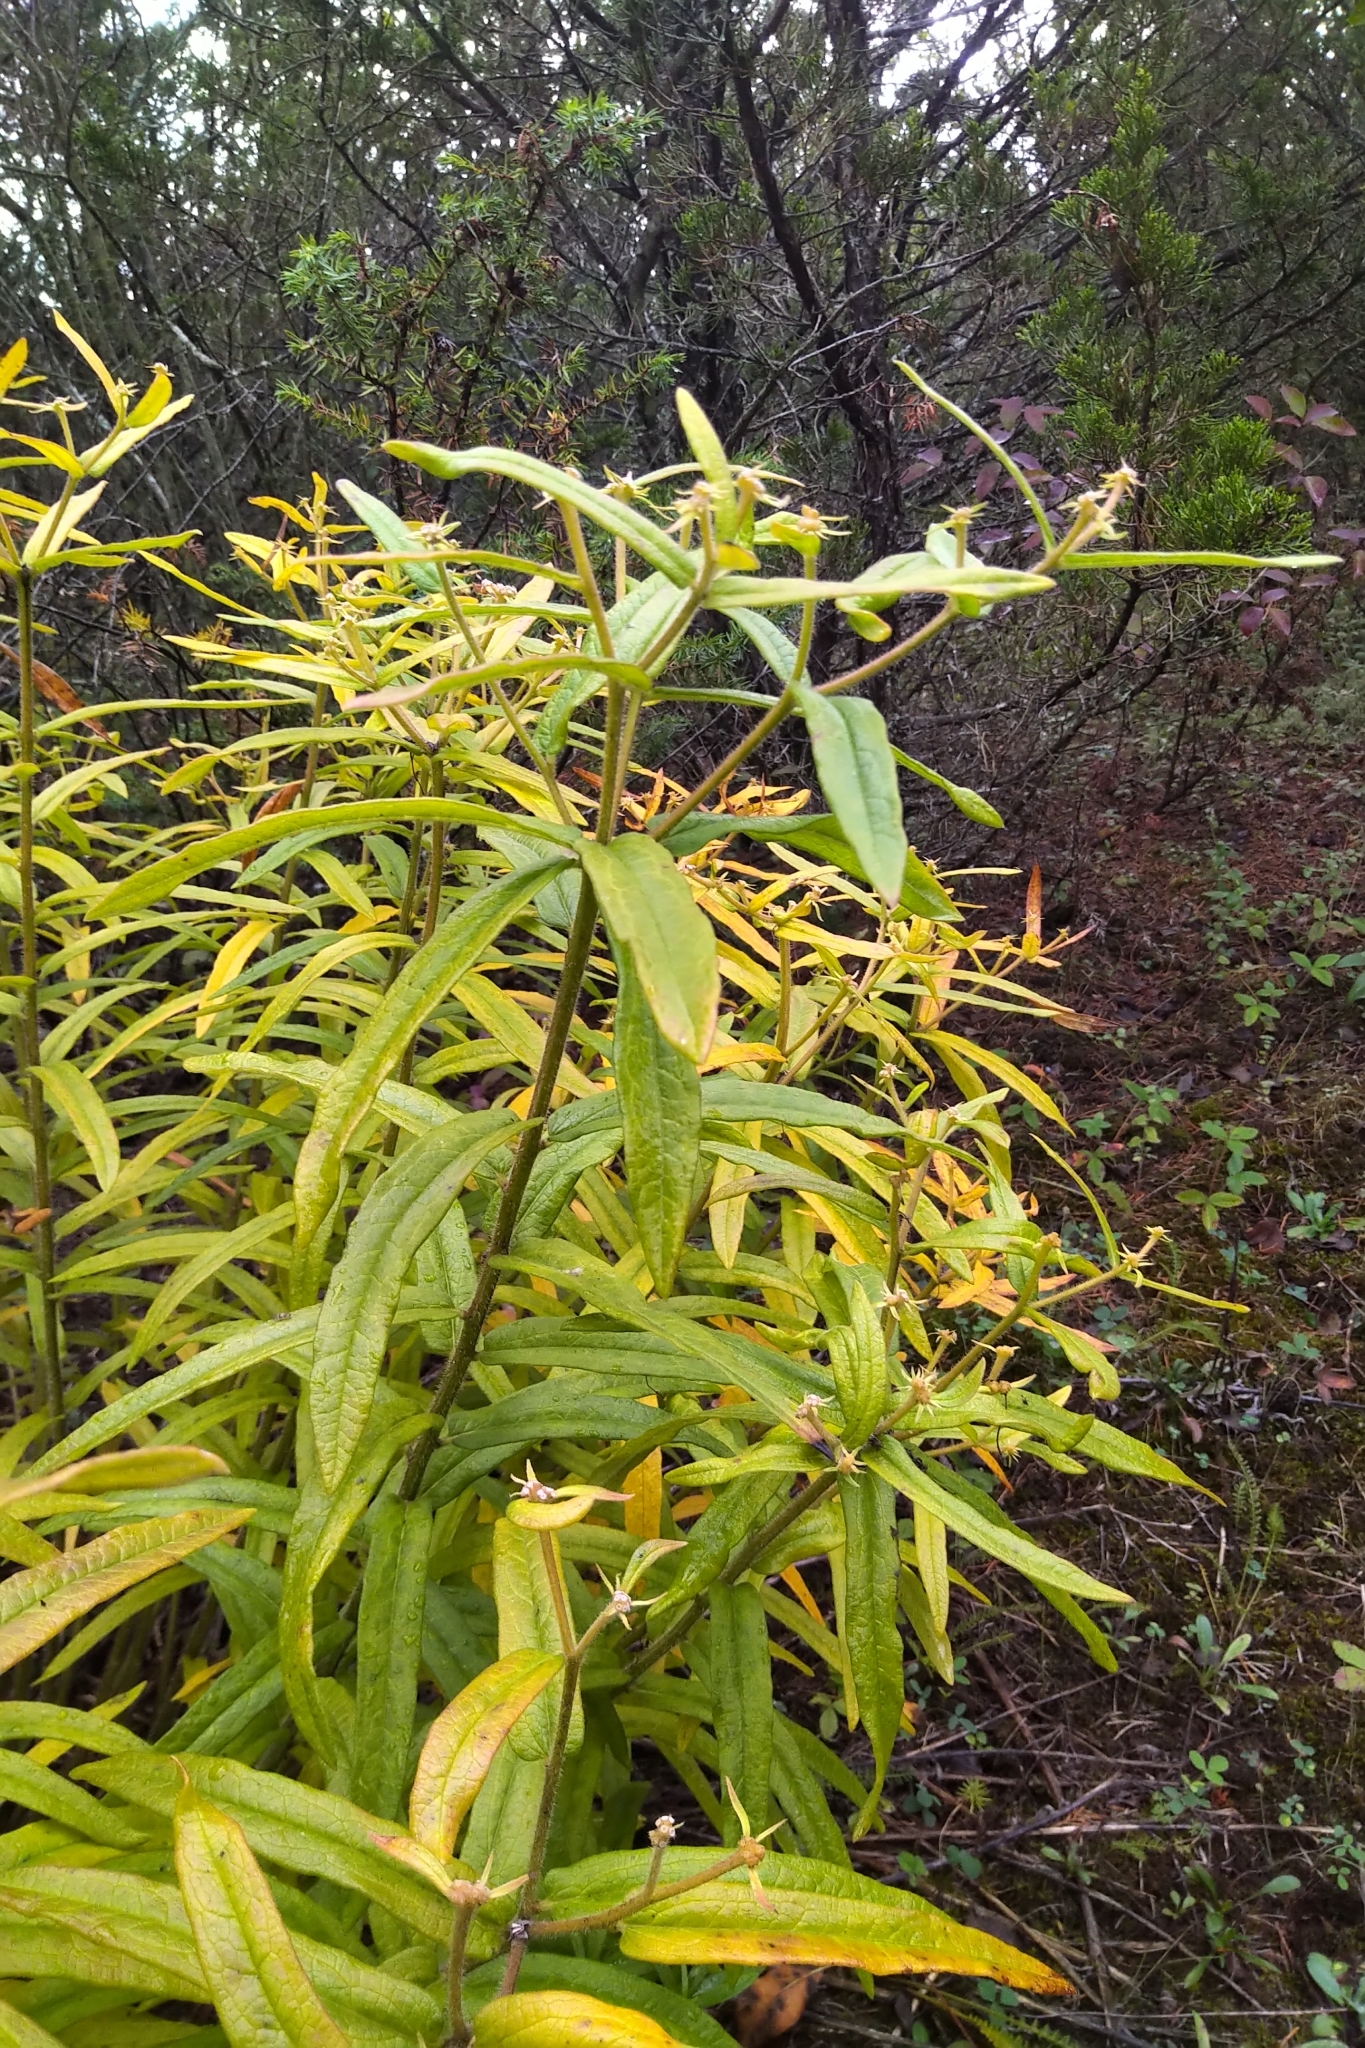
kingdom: Plantae
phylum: Tracheophyta
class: Magnoliopsida
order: Gentianales
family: Apocynaceae
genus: Asclepias
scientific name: Asclepias tuberosa
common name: Butterfly milkweed
